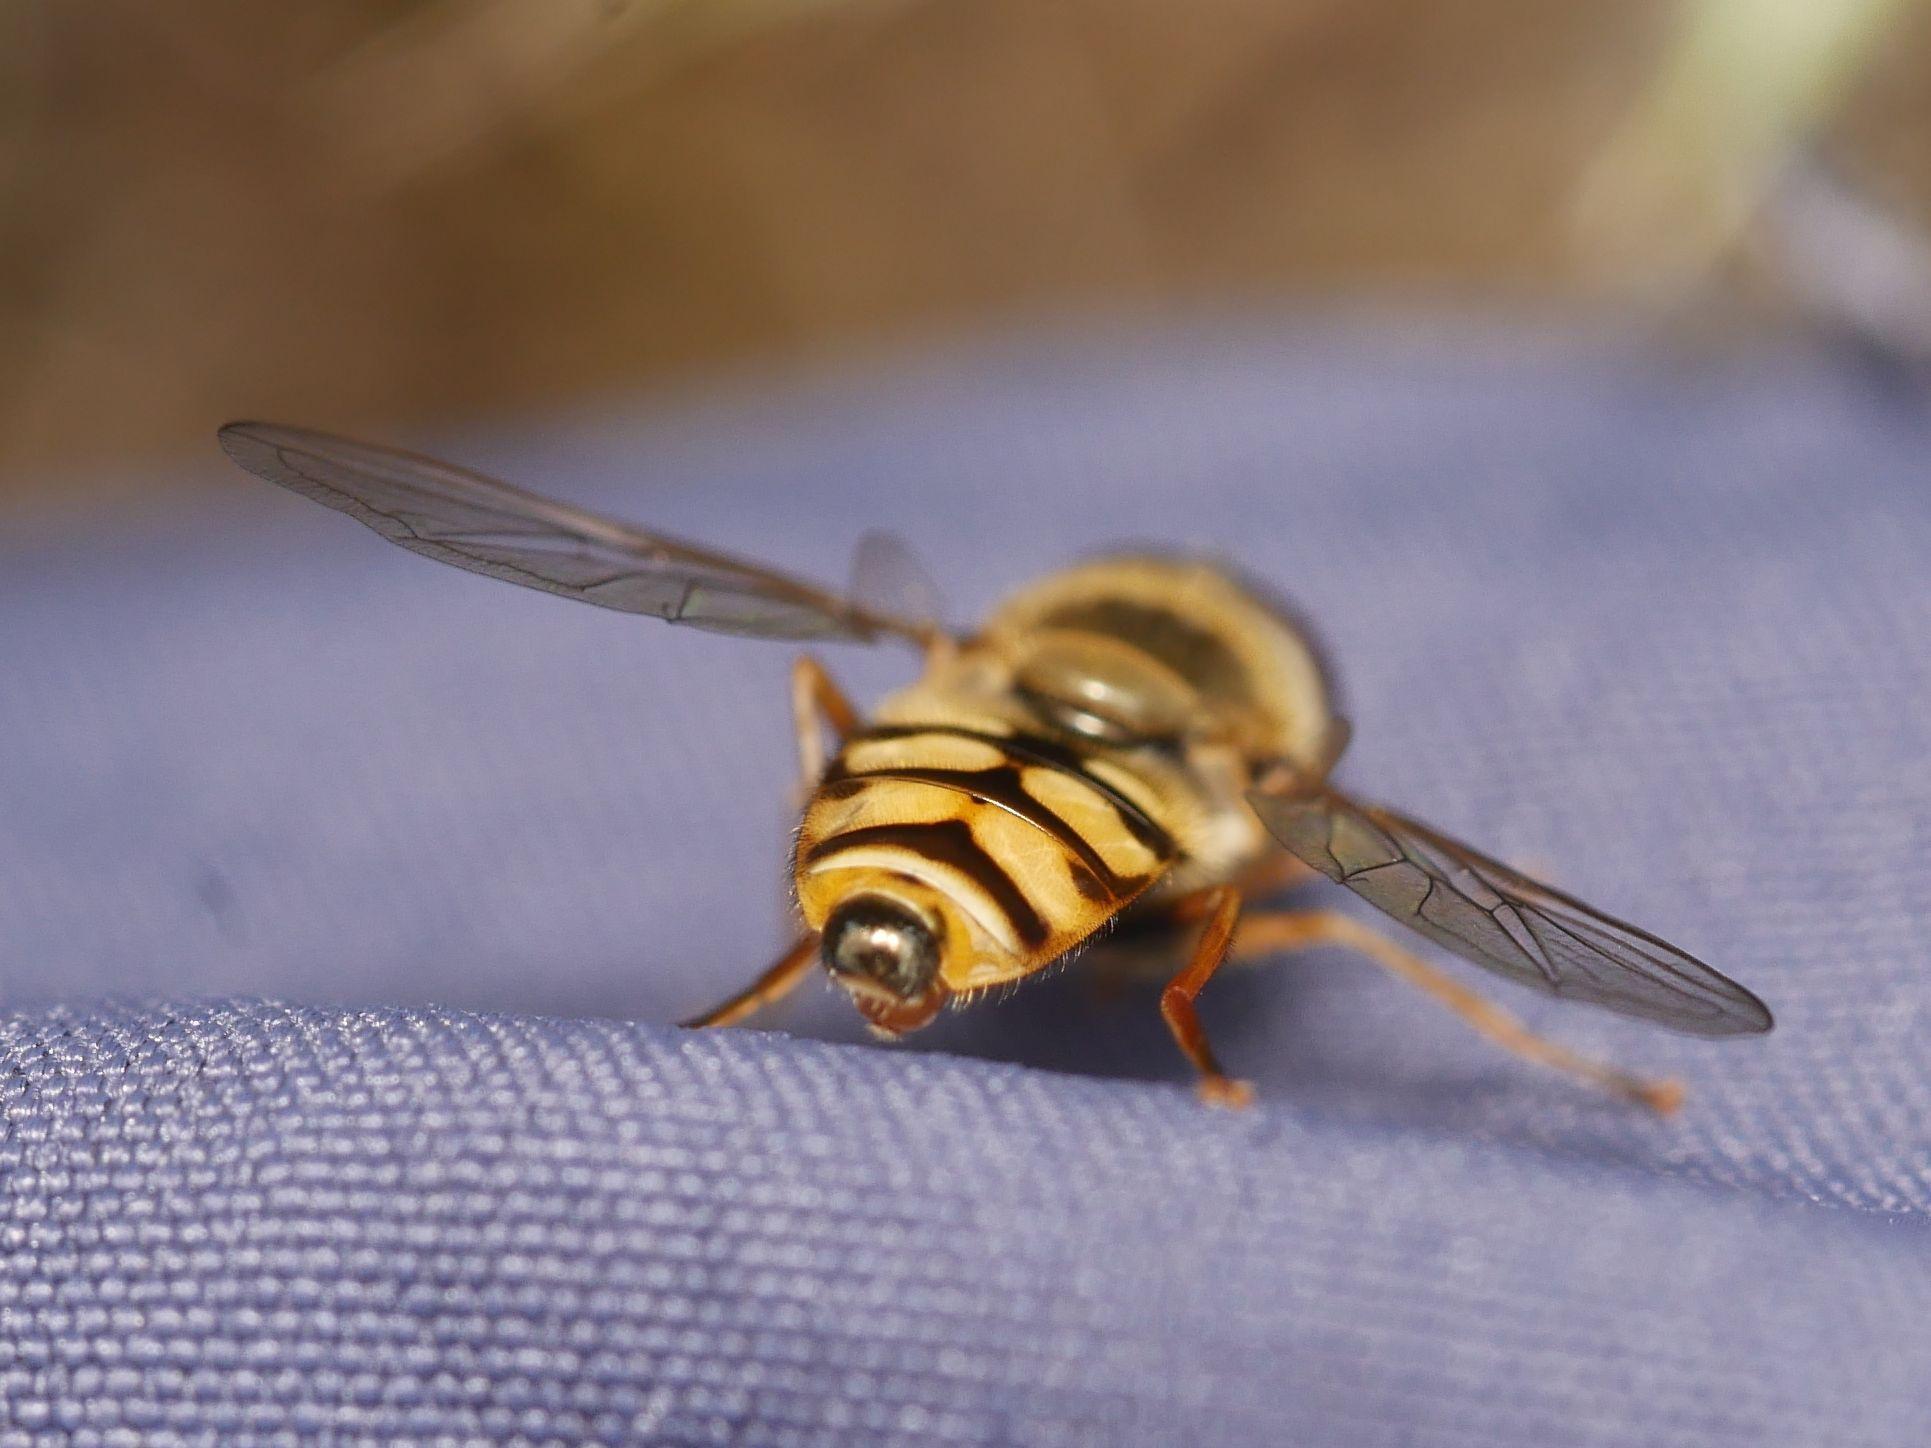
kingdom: Animalia
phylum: Arthropoda
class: Insecta
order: Diptera
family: Syrphidae
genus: Eupeodes
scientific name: Eupeodes corollae
